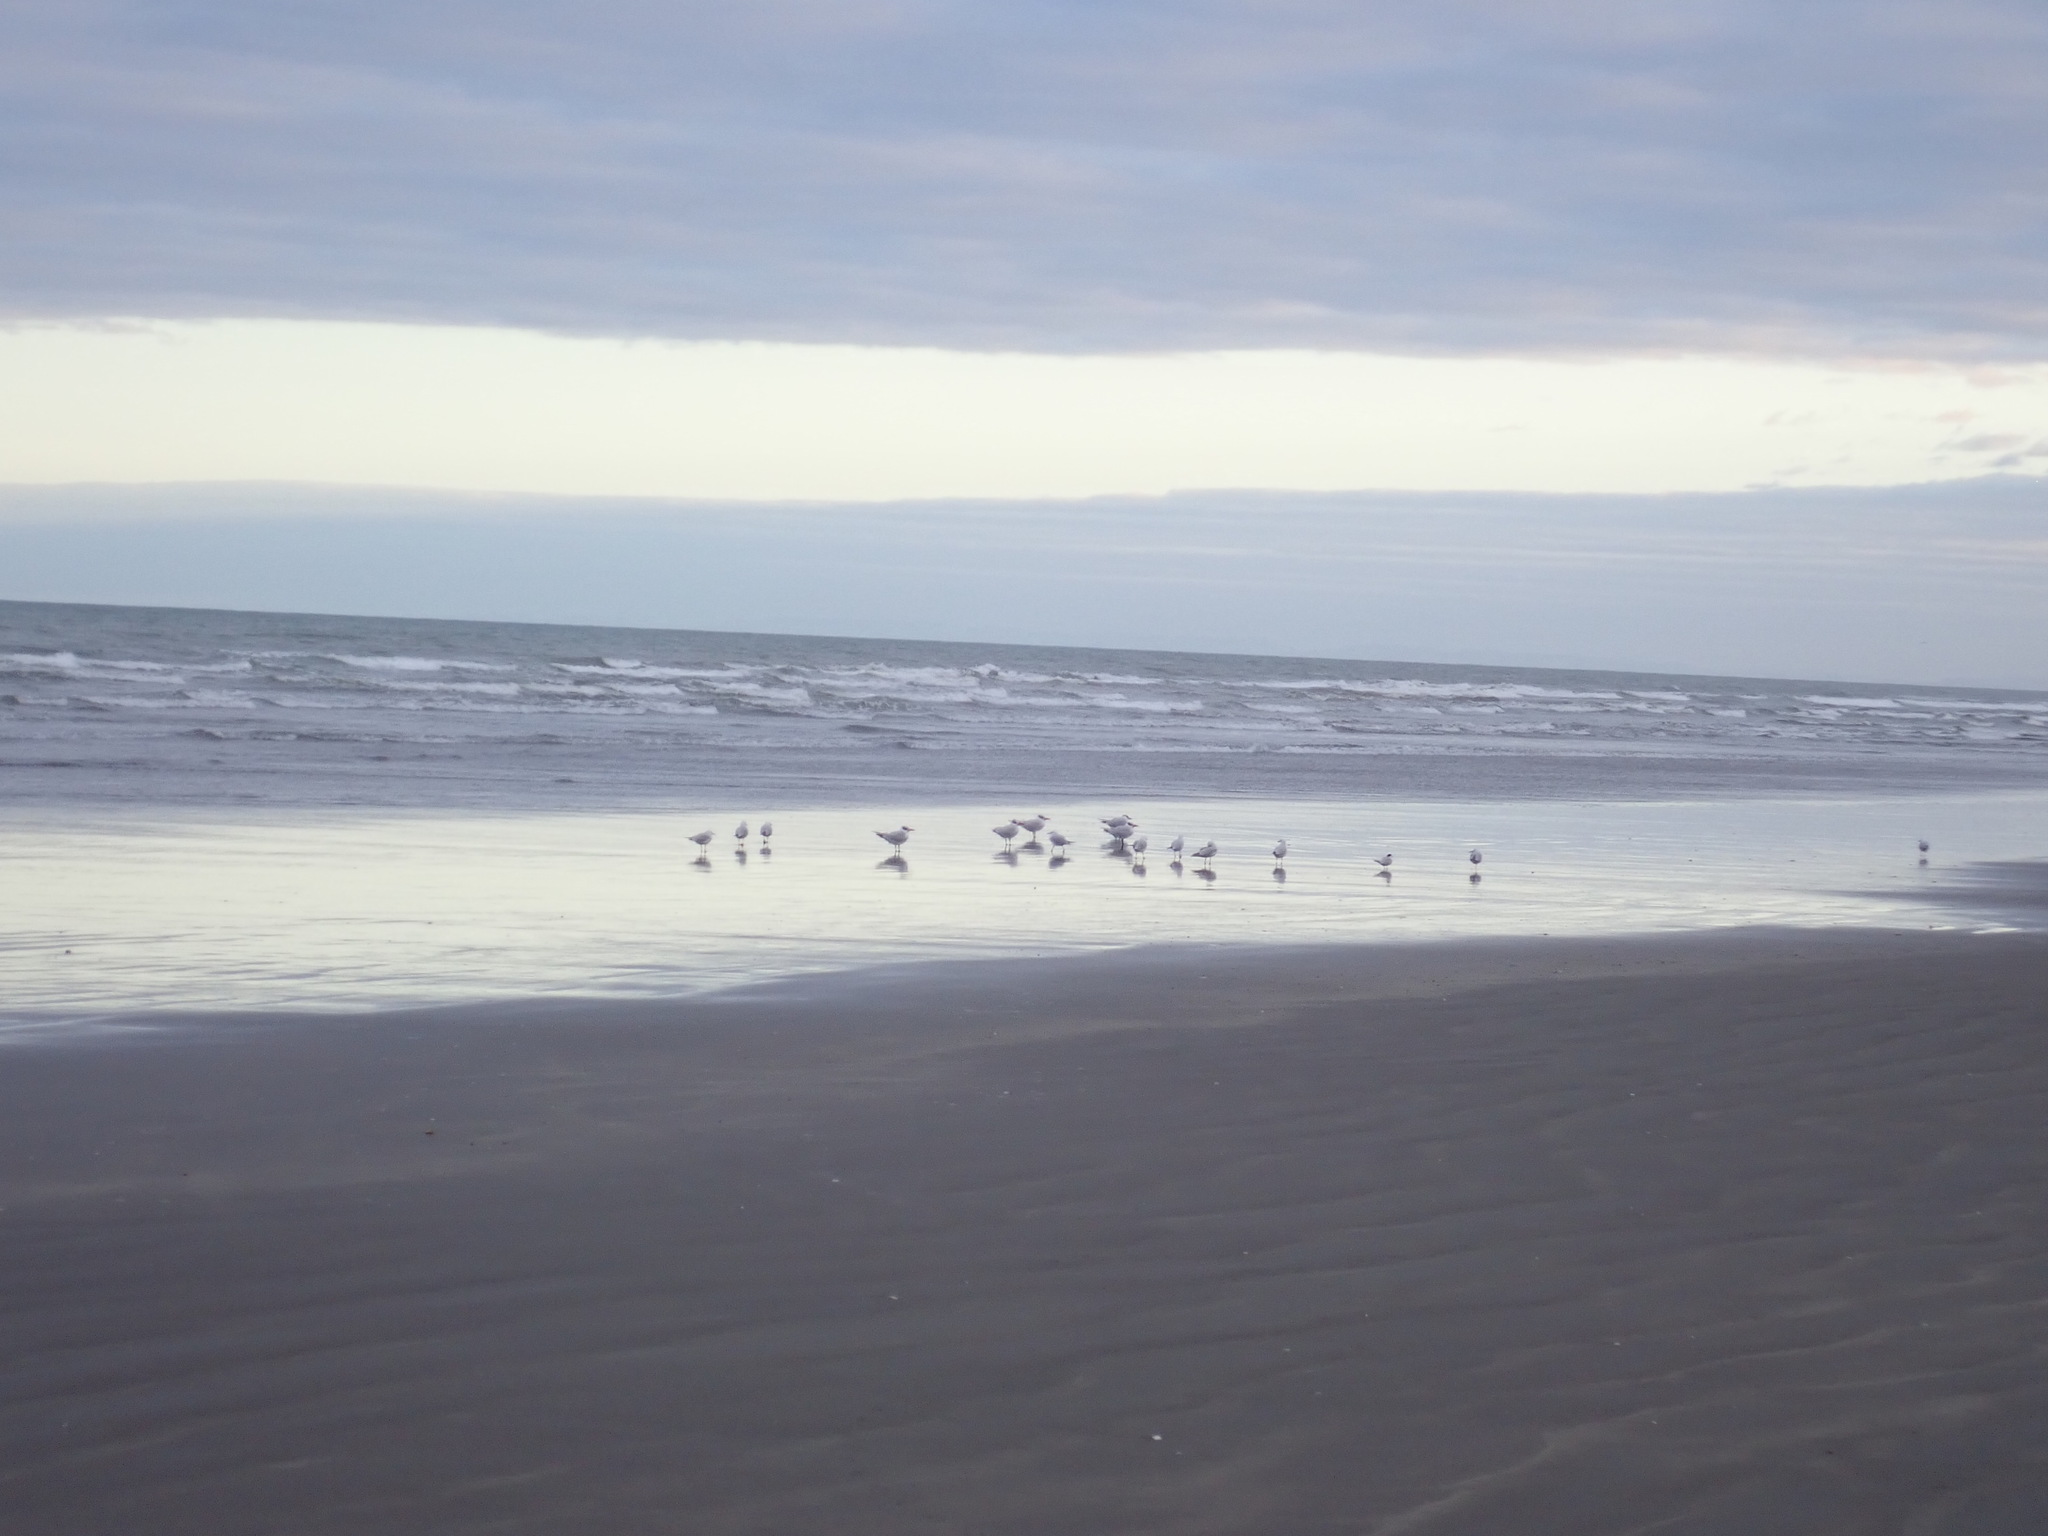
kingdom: Animalia
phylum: Chordata
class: Aves
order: Charadriiformes
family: Laridae
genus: Hydroprogne
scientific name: Hydroprogne caspia
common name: Caspian tern
